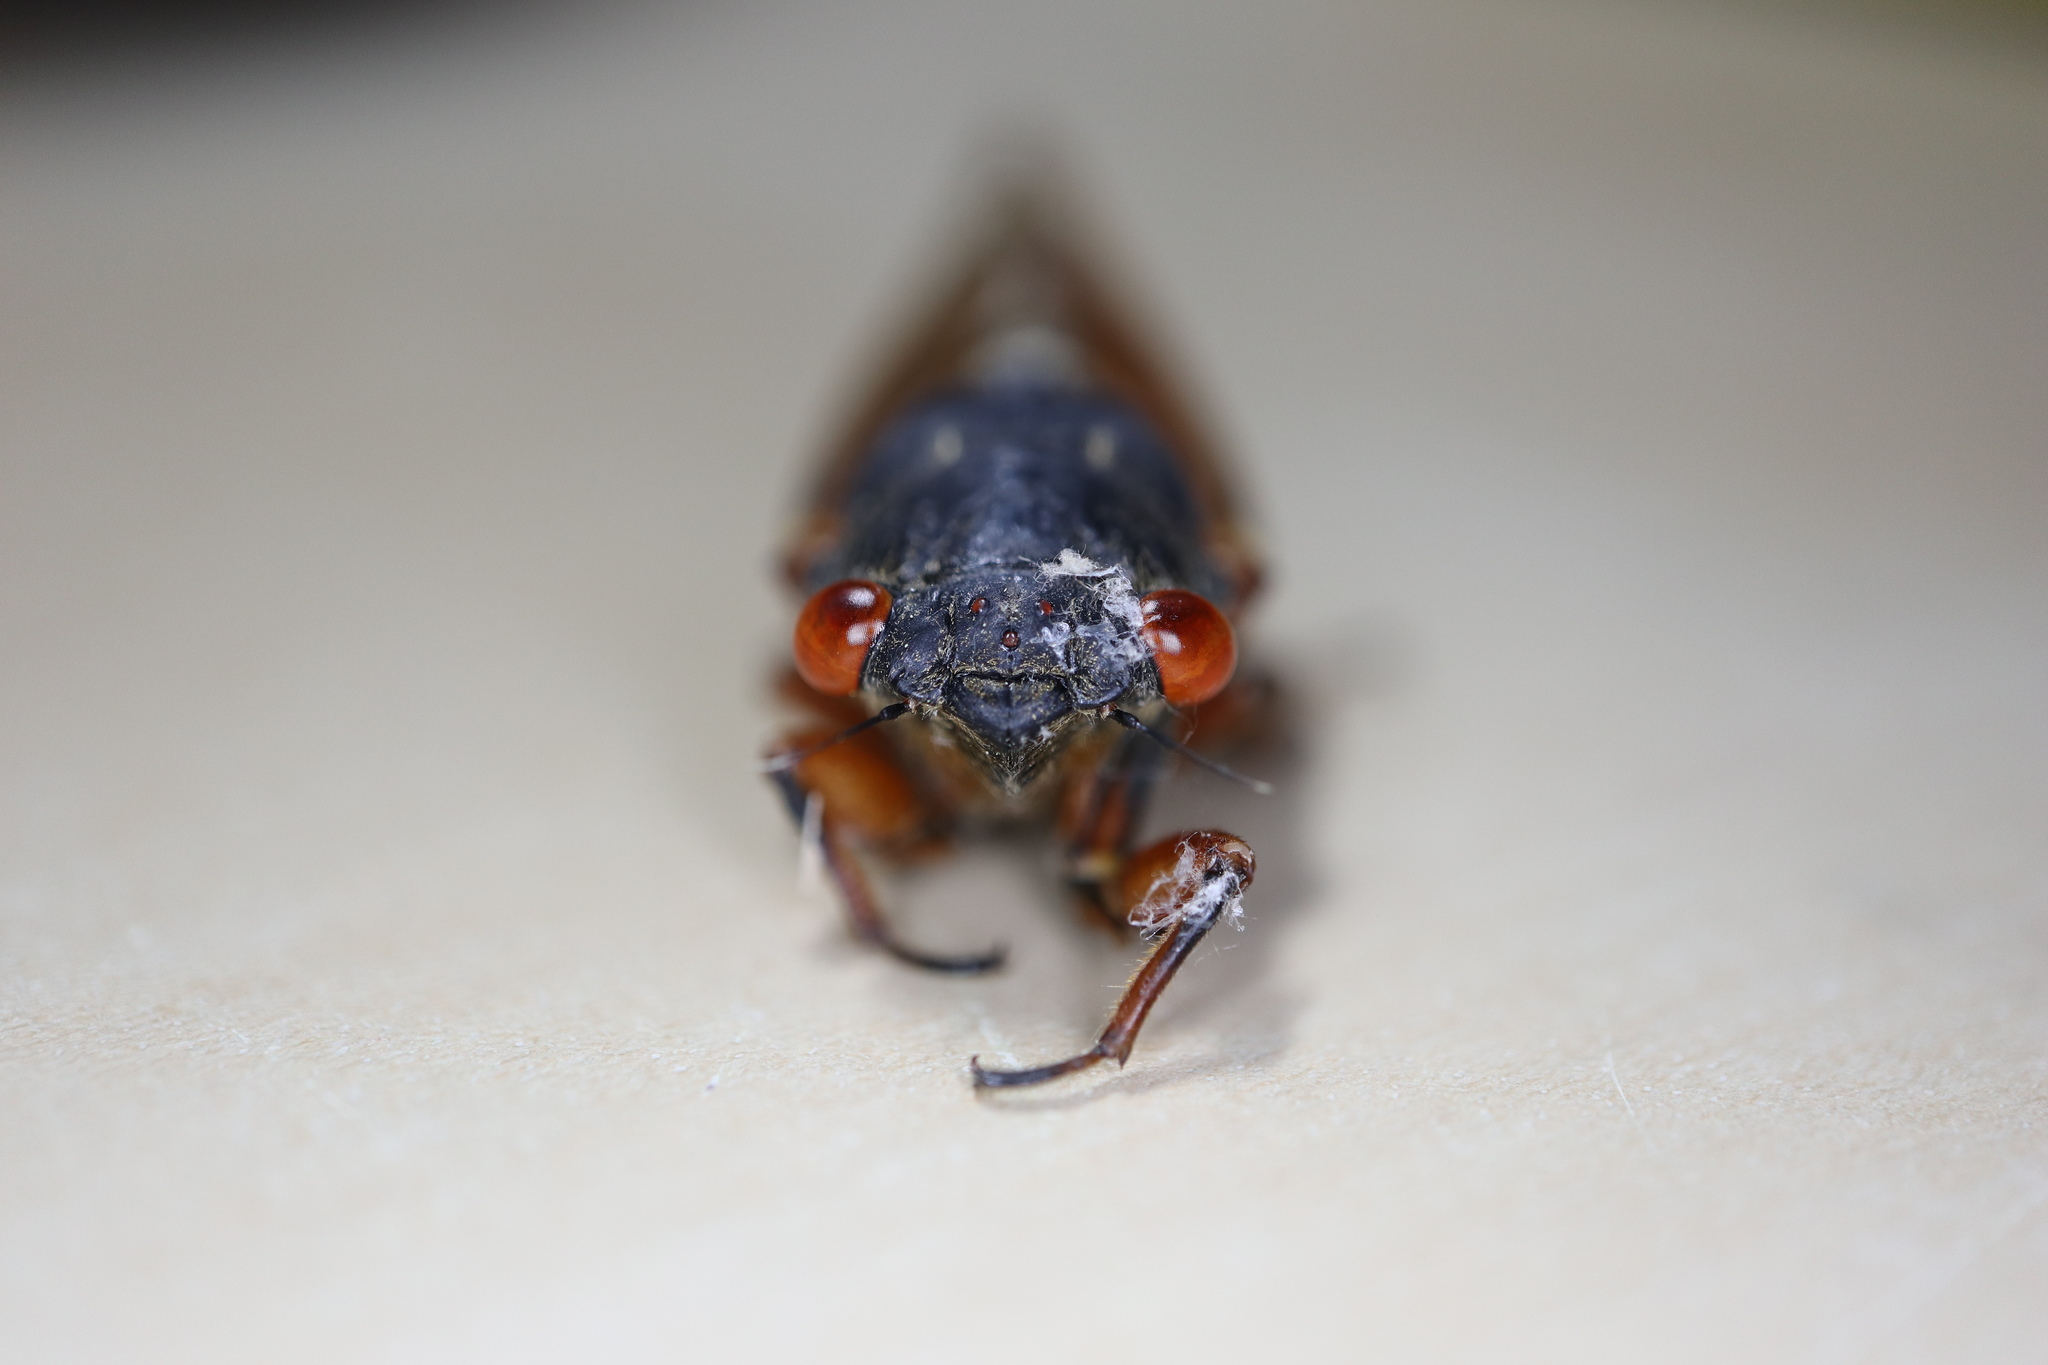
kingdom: Animalia
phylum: Arthropoda
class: Insecta
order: Hemiptera
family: Cicadidae
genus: Magicicada
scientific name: Magicicada cassini
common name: Cassin's 17-year cicada
